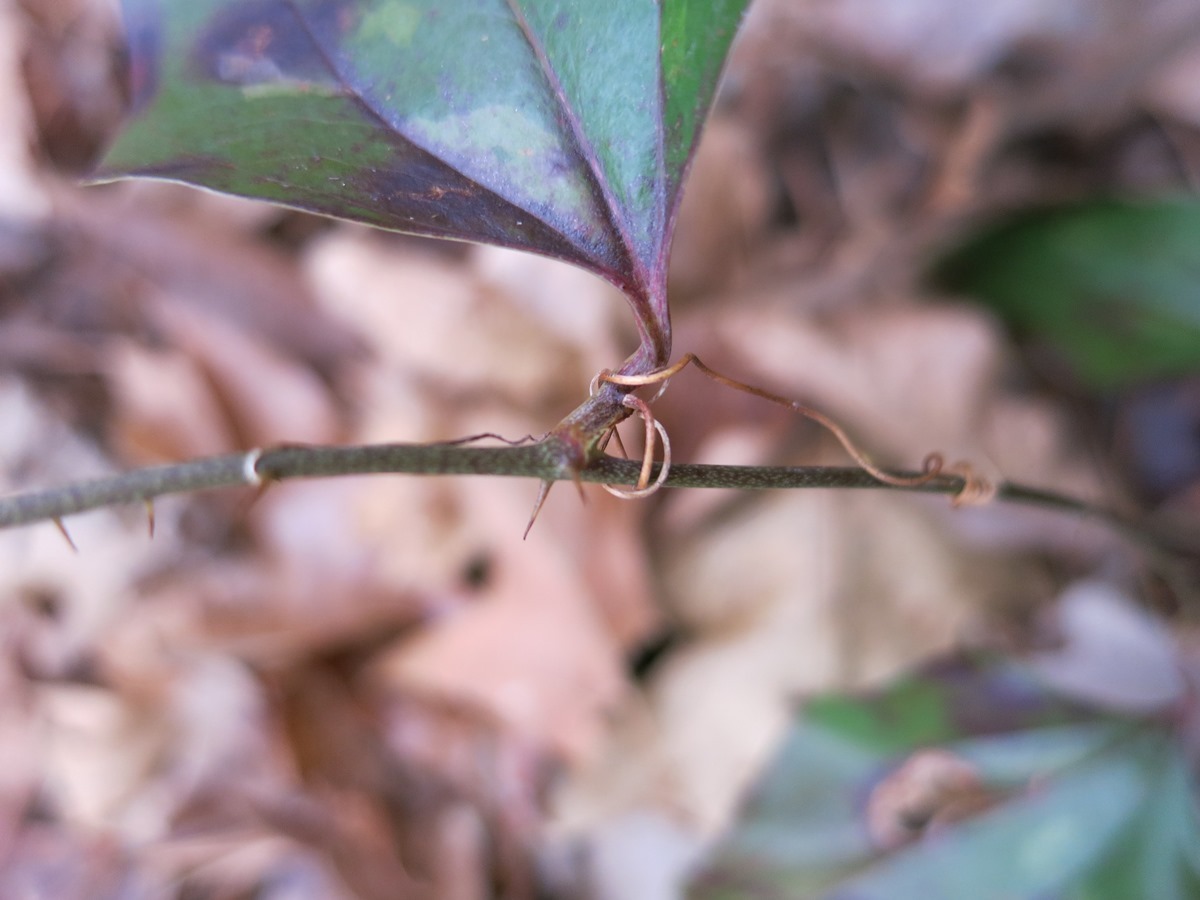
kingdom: Plantae
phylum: Tracheophyta
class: Liliopsida
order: Liliales
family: Smilacaceae
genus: Smilax
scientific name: Smilax glauca
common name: Cat greenbrier
